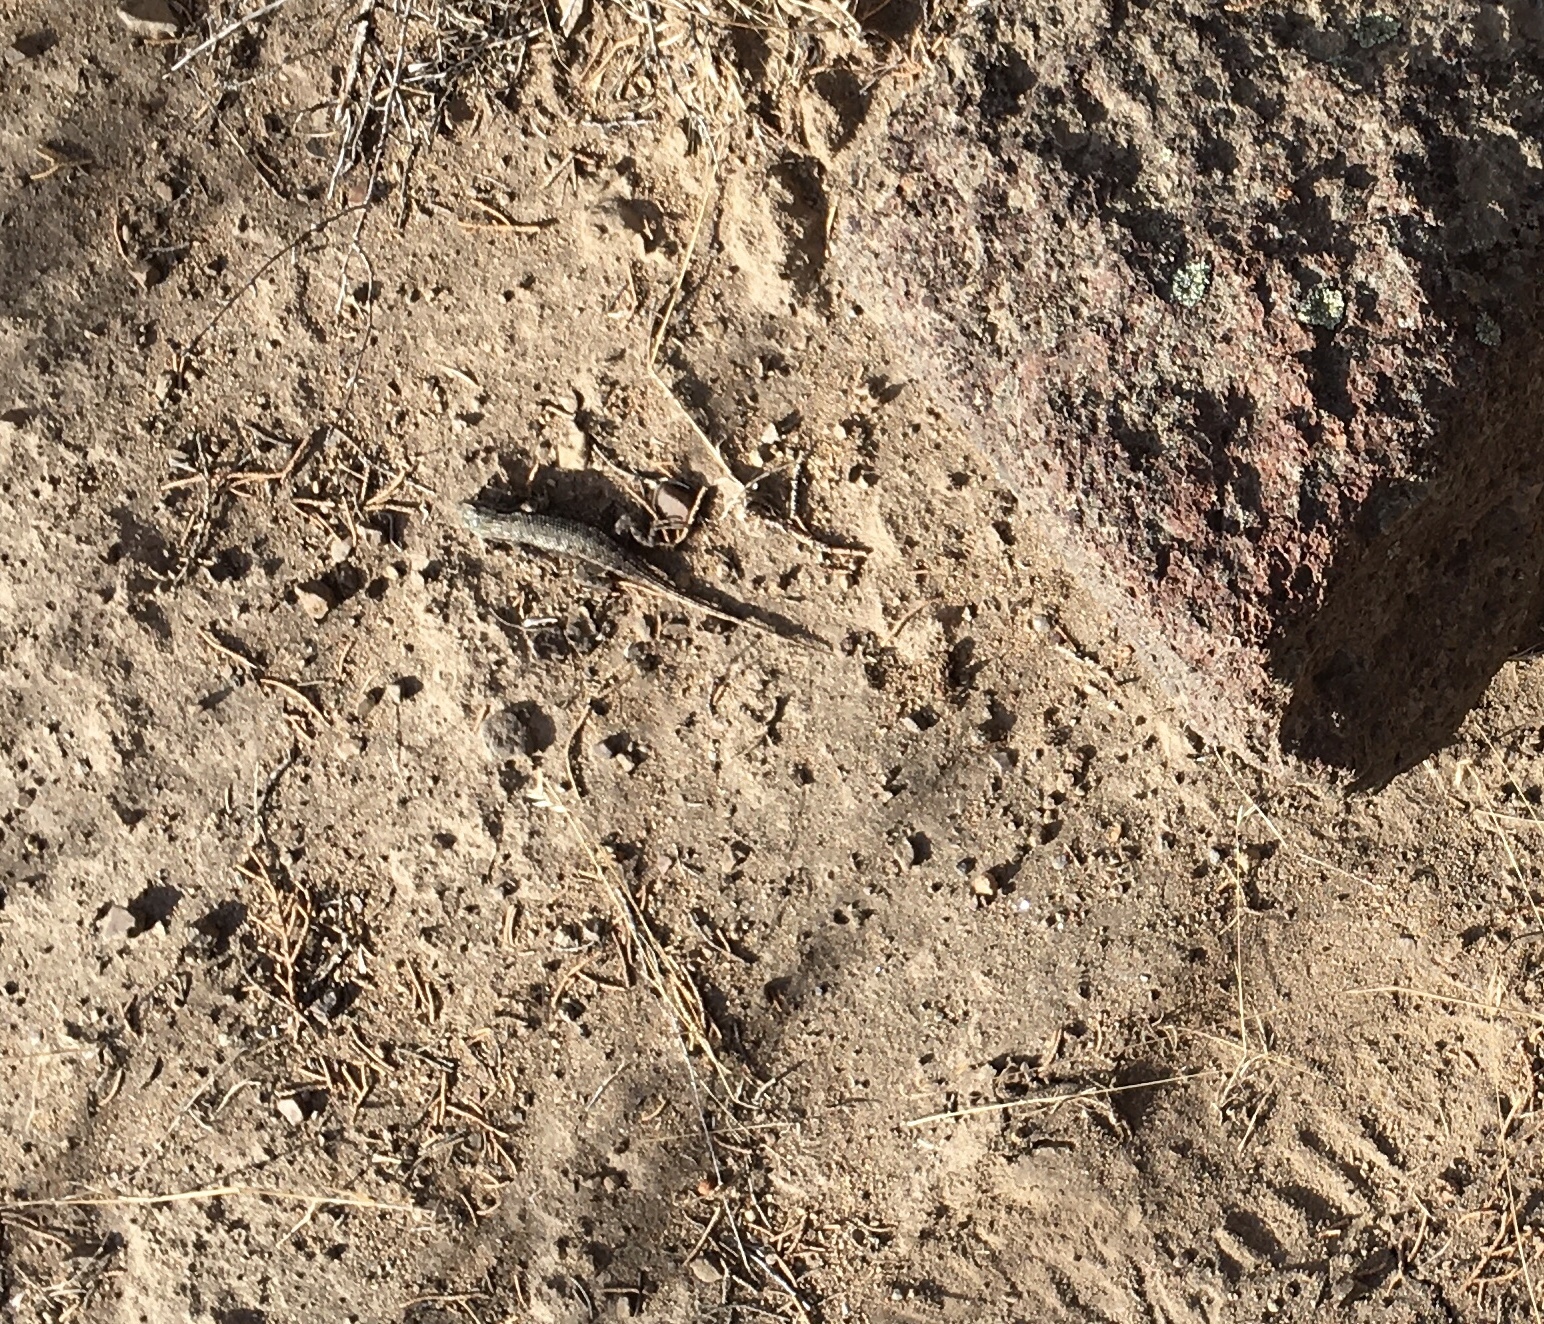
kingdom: Animalia
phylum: Chordata
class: Squamata
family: Phrynosomatidae
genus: Sceloporus
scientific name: Sceloporus occidentalis
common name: Western fence lizard
